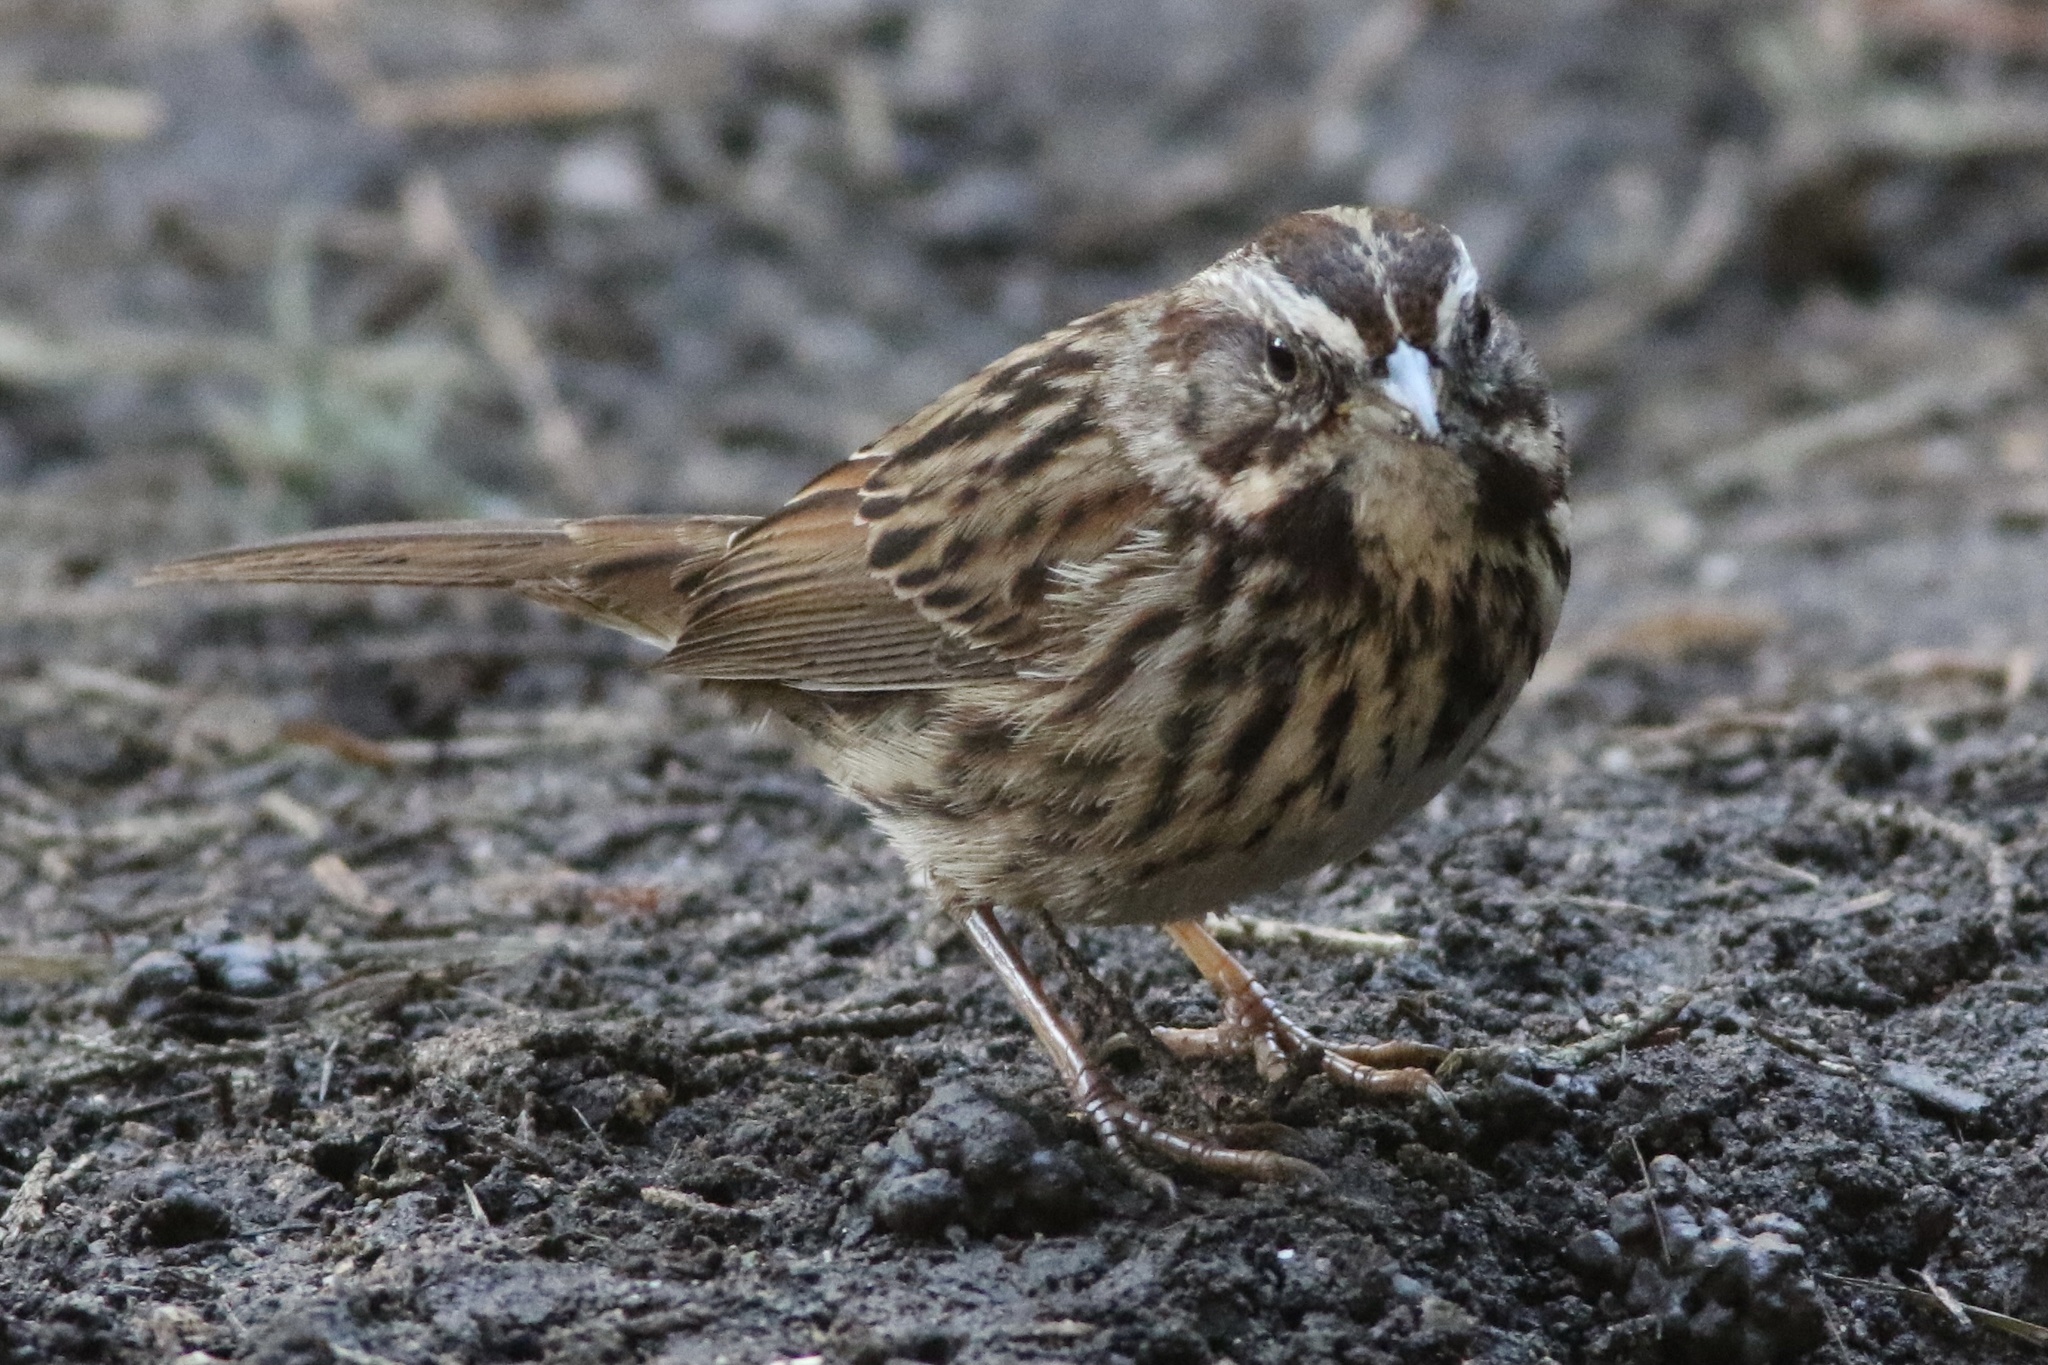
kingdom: Animalia
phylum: Chordata
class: Aves
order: Passeriformes
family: Passerellidae
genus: Melospiza
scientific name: Melospiza melodia
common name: Song sparrow
